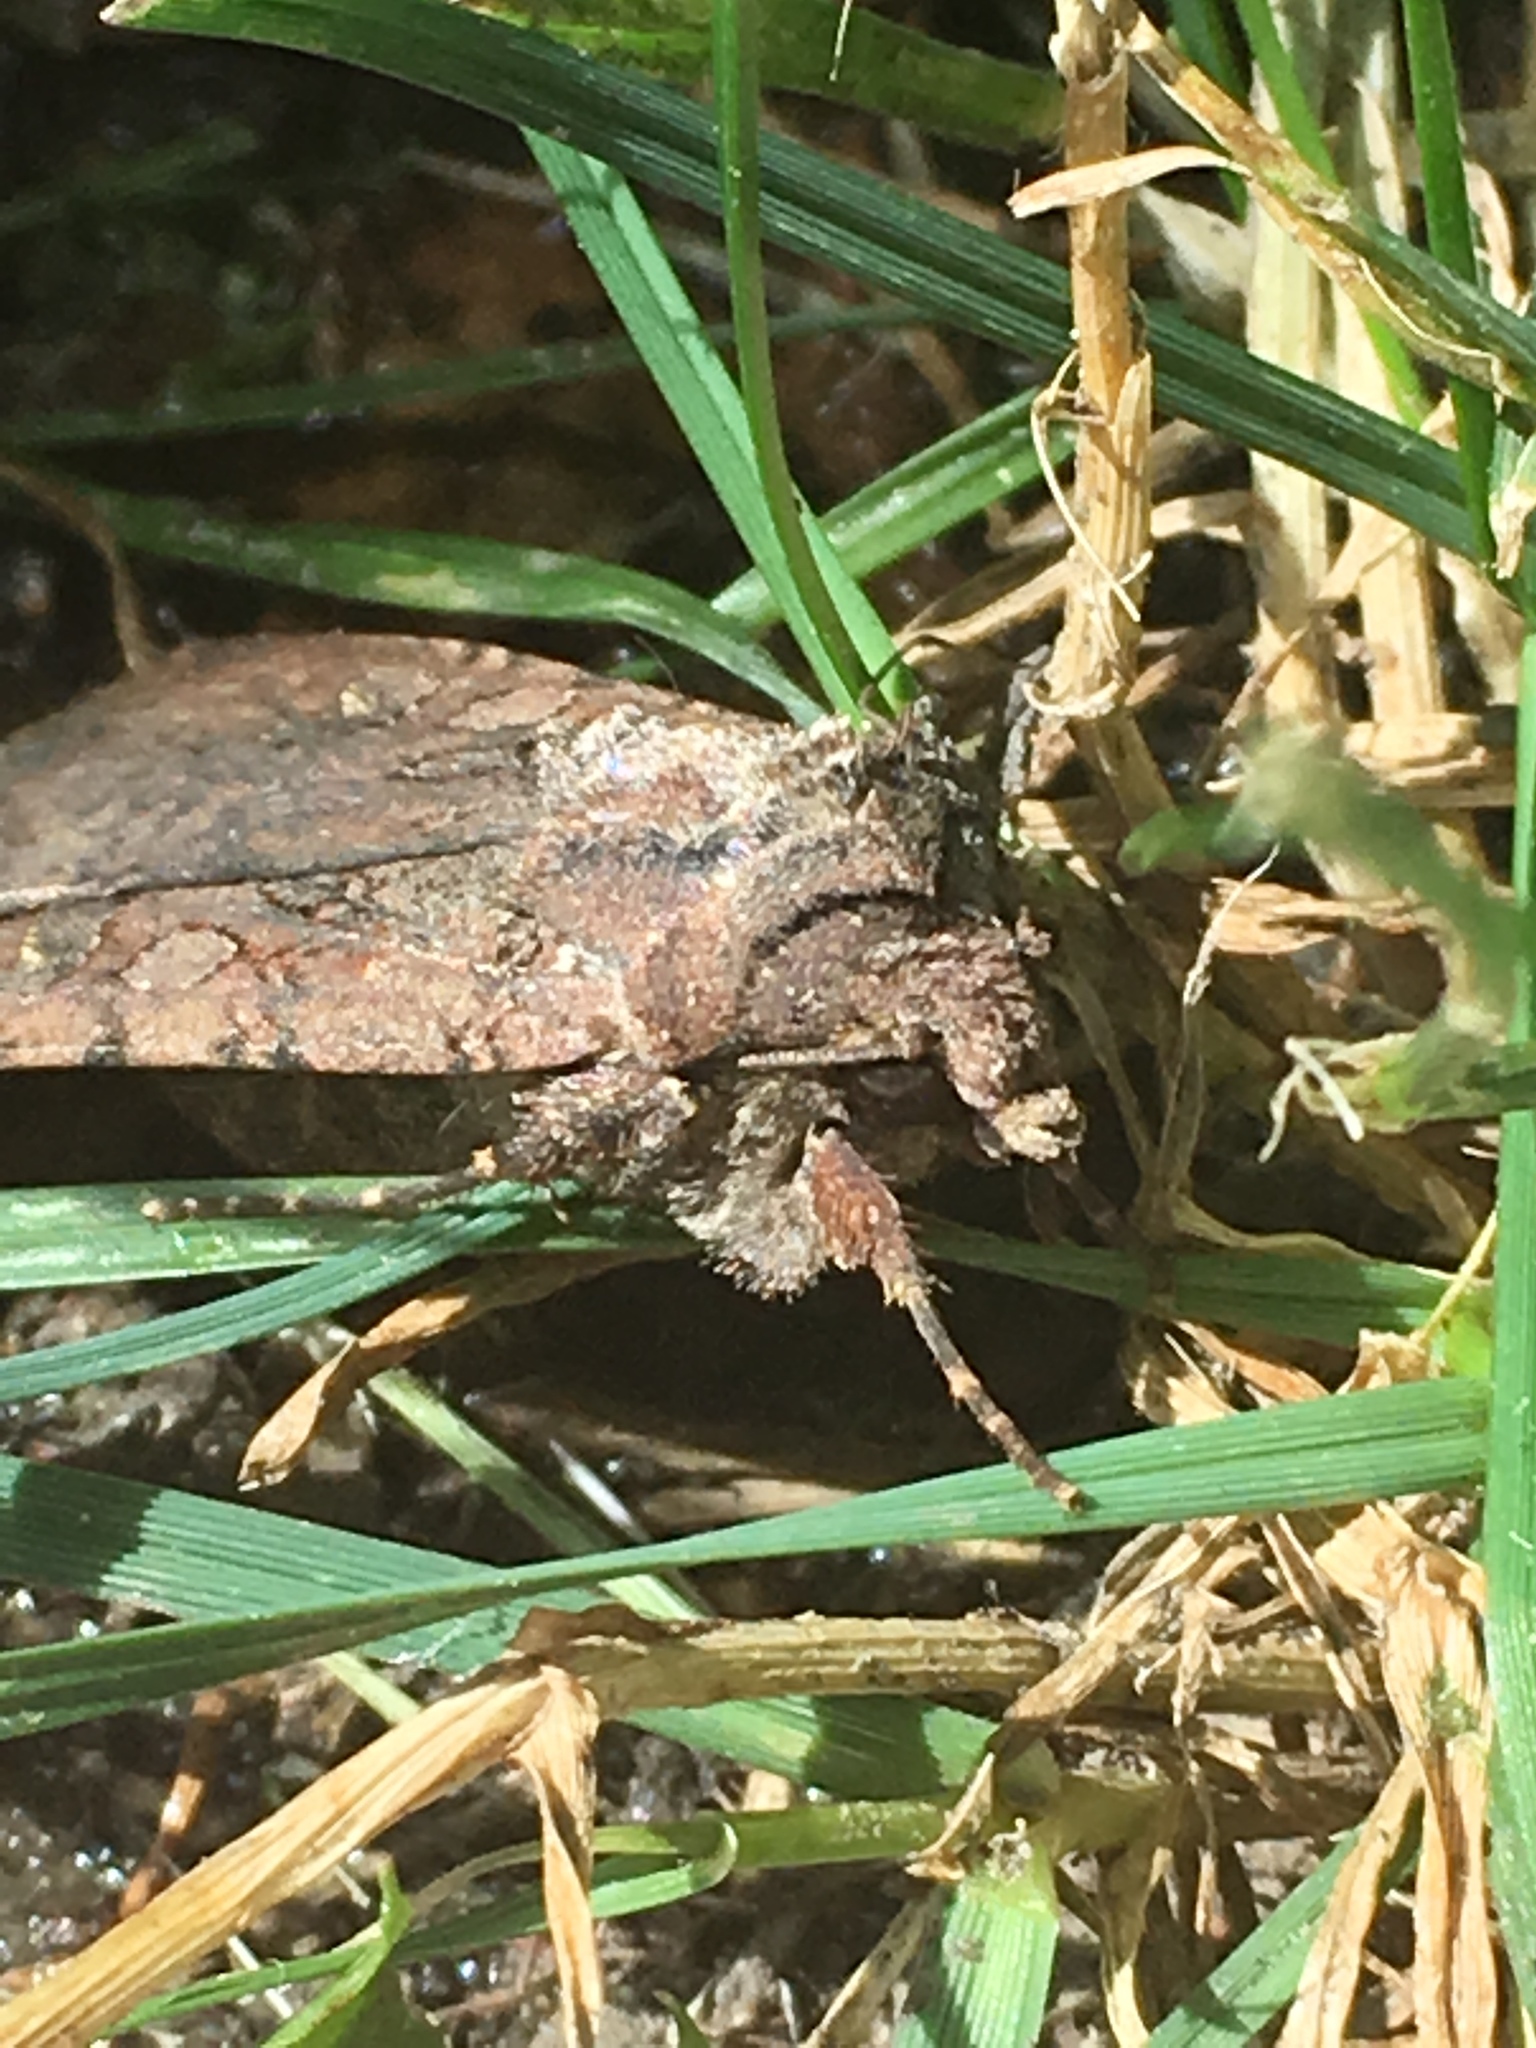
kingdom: Animalia
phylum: Arthropoda
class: Insecta
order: Lepidoptera
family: Noctuidae
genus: Peridroma
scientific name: Peridroma saucia
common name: Pearly underwing
